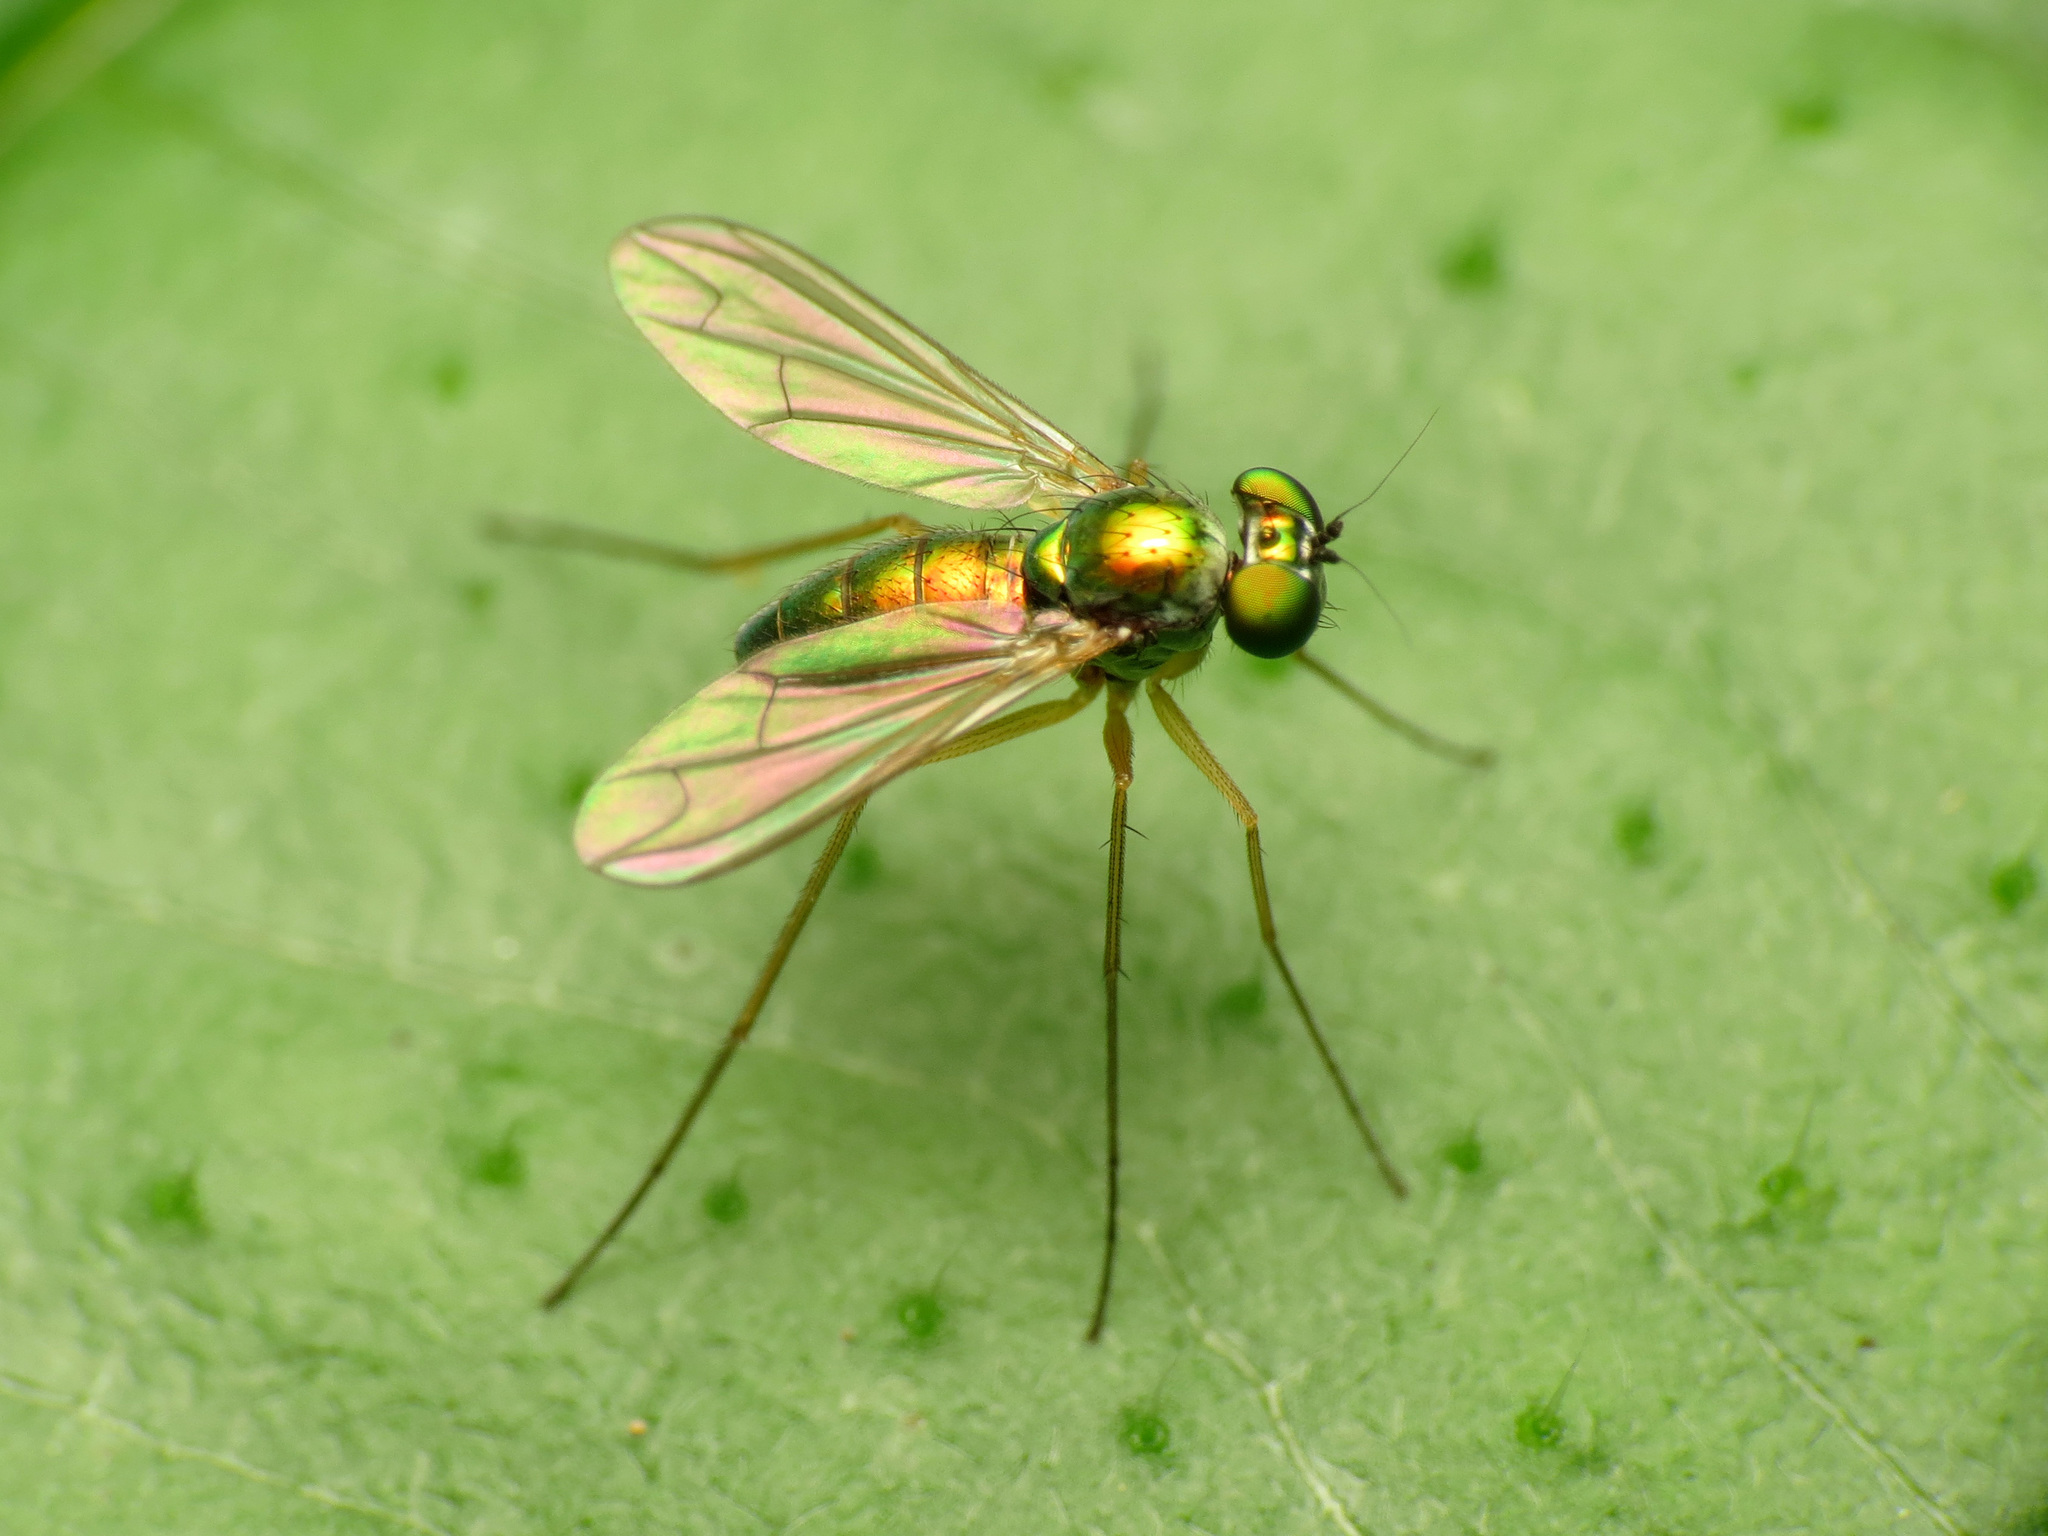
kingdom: Animalia
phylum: Arthropoda
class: Insecta
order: Diptera
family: Dolichopodidae
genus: Amblypsilopus
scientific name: Amblypsilopus scintillans
